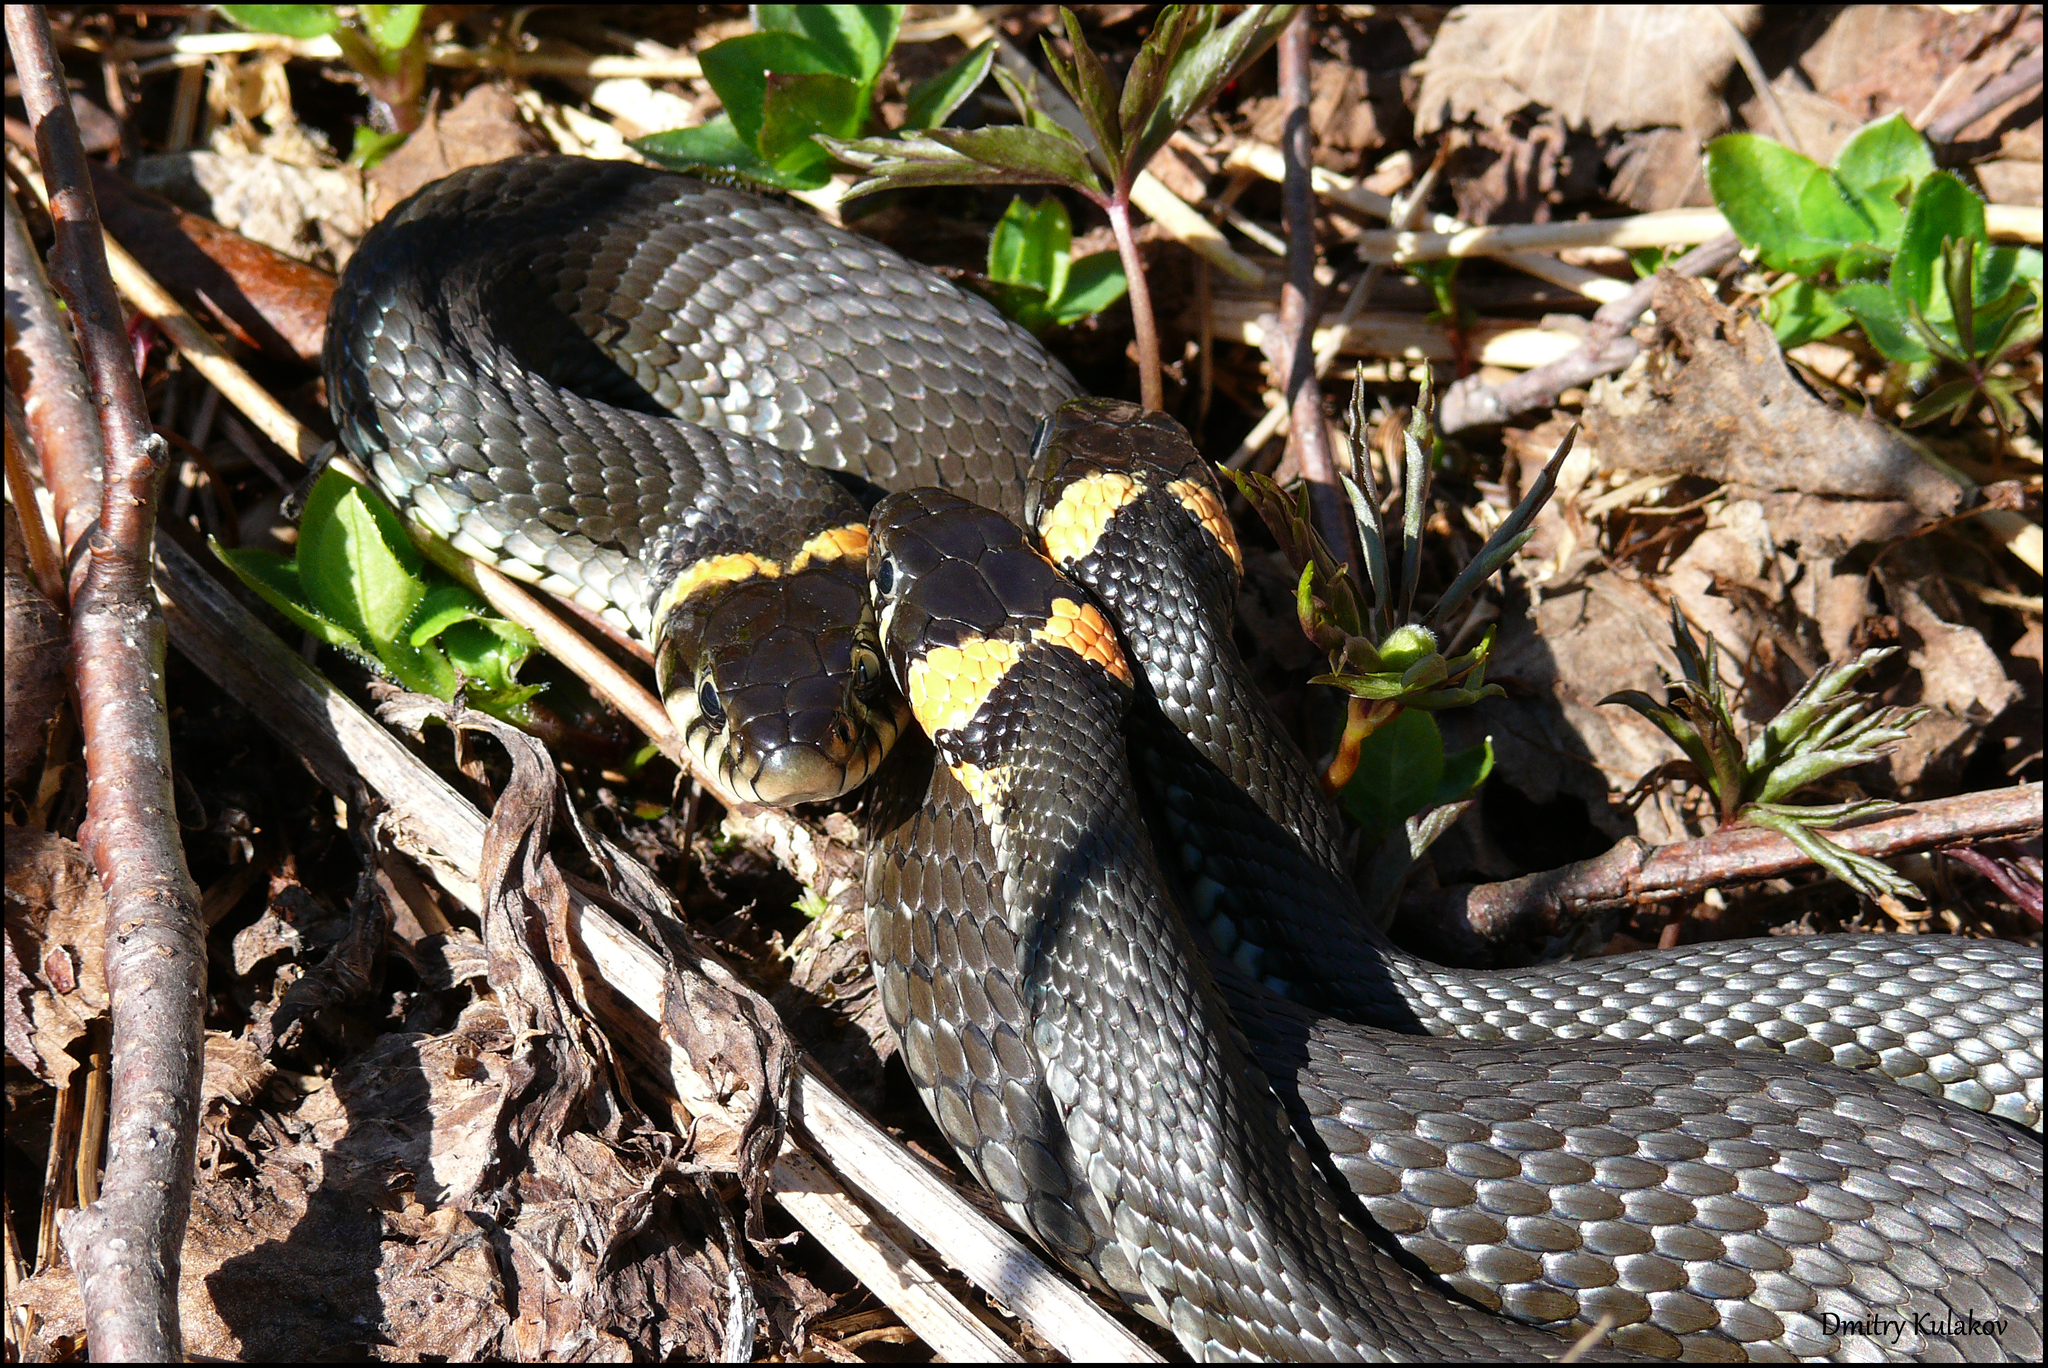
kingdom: Animalia
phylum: Chordata
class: Squamata
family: Colubridae
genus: Natrix
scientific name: Natrix natrix
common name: Grass snake
